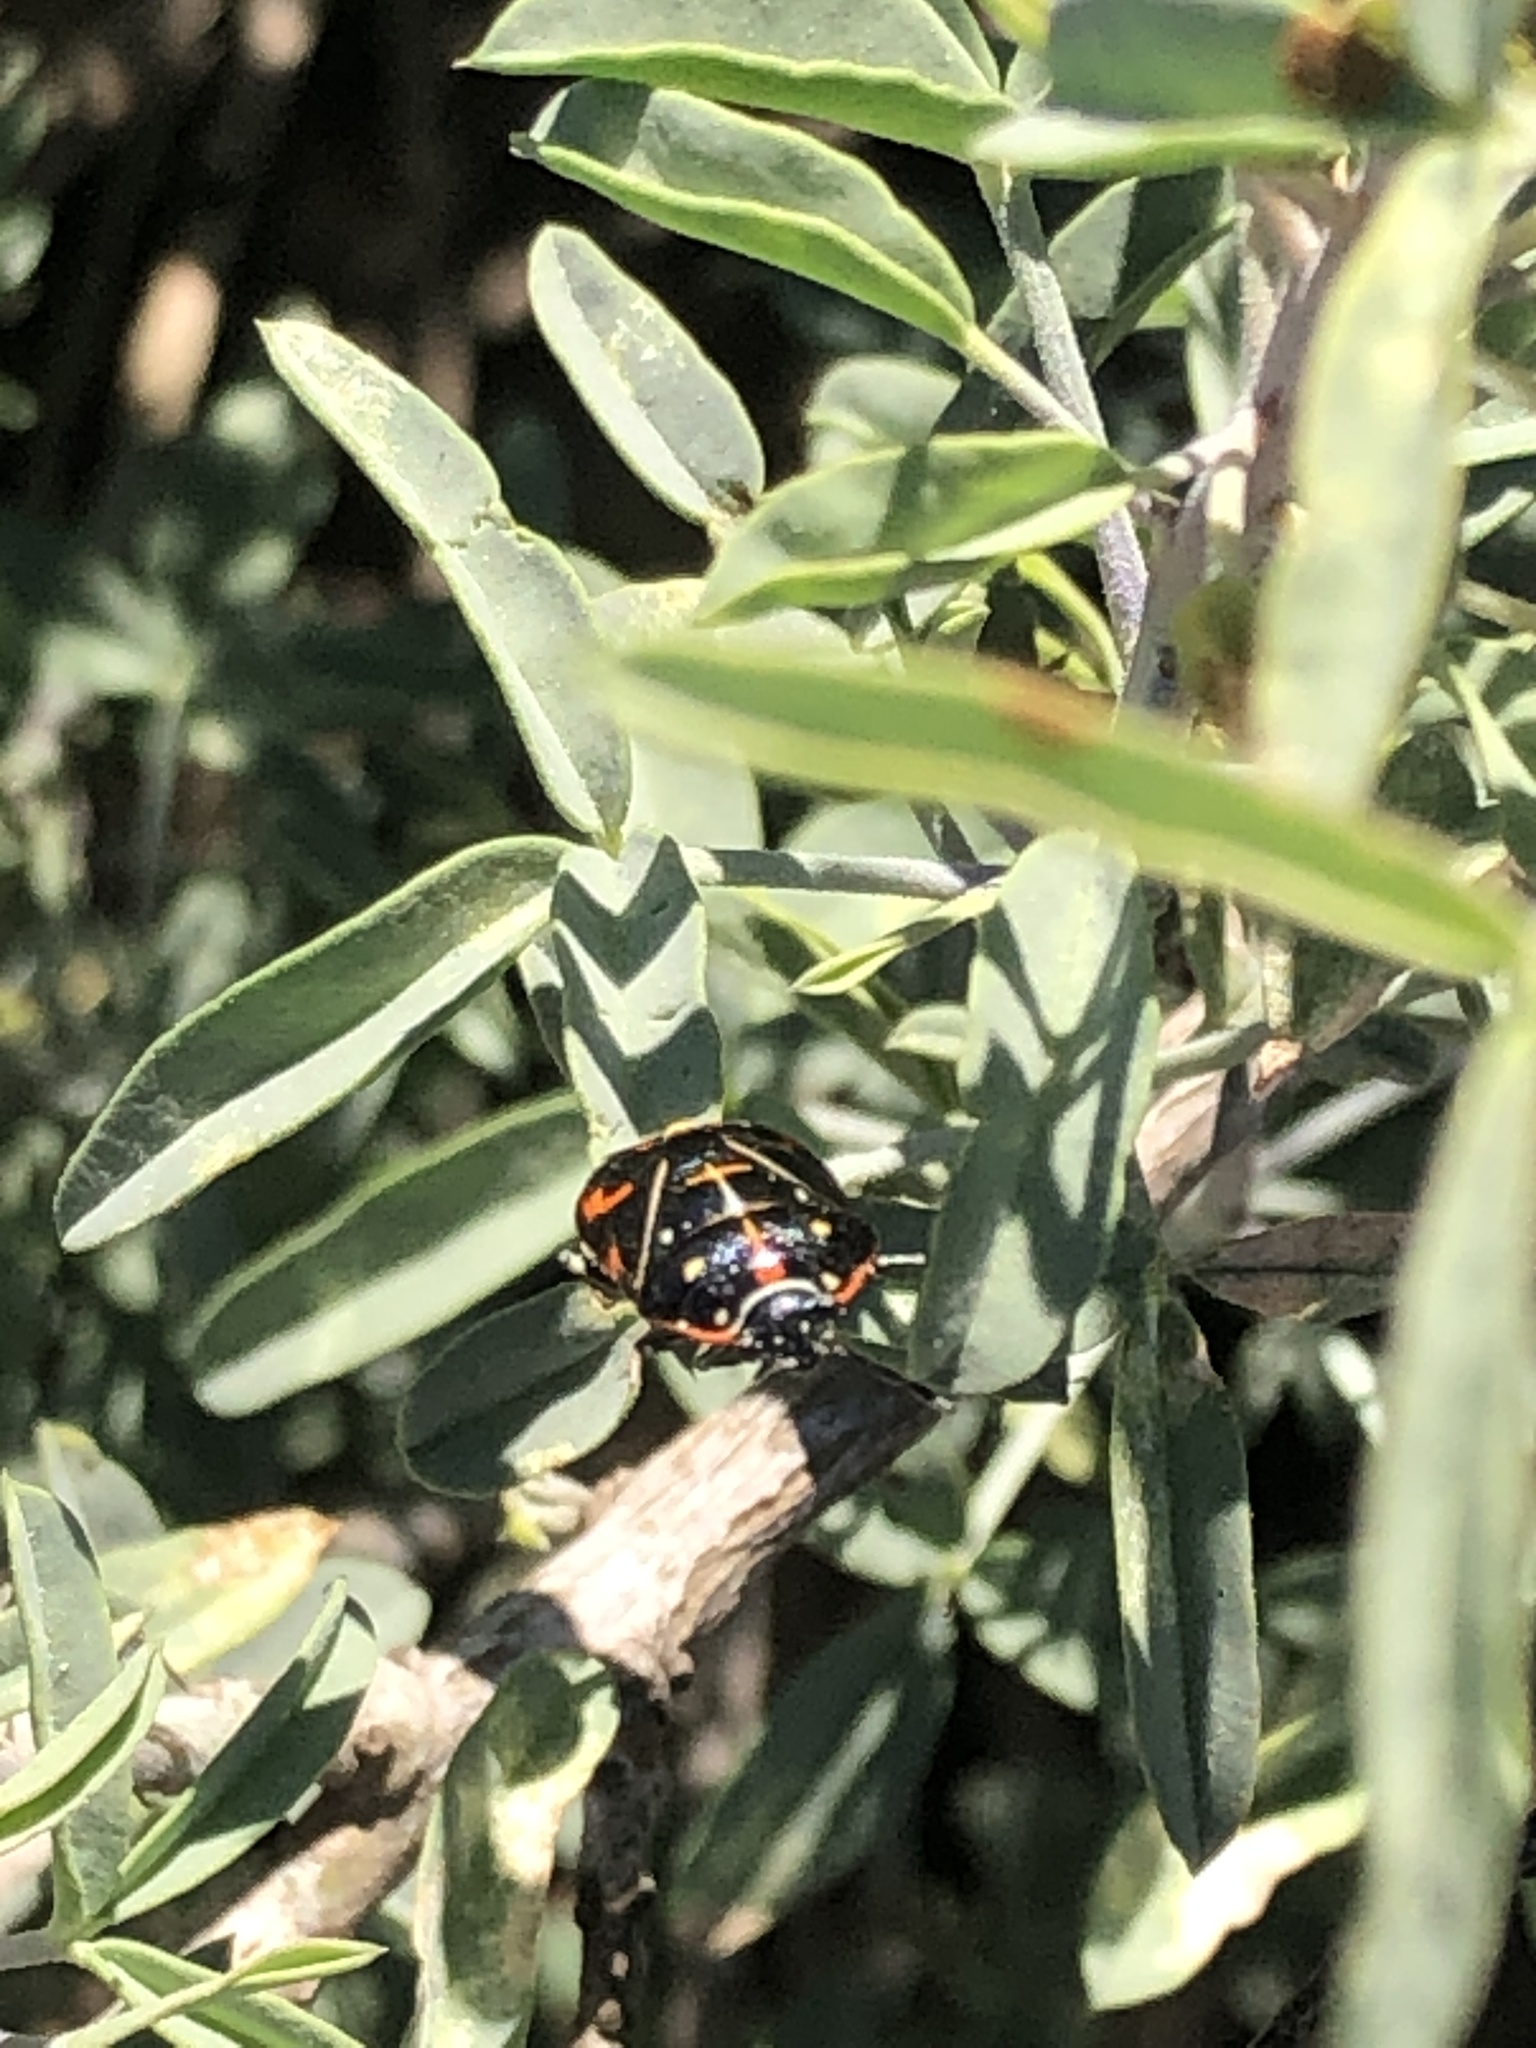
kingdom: Animalia
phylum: Arthropoda
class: Insecta
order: Hemiptera
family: Pentatomidae
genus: Murgantia
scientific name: Murgantia histrionica
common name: Harlequin bug
